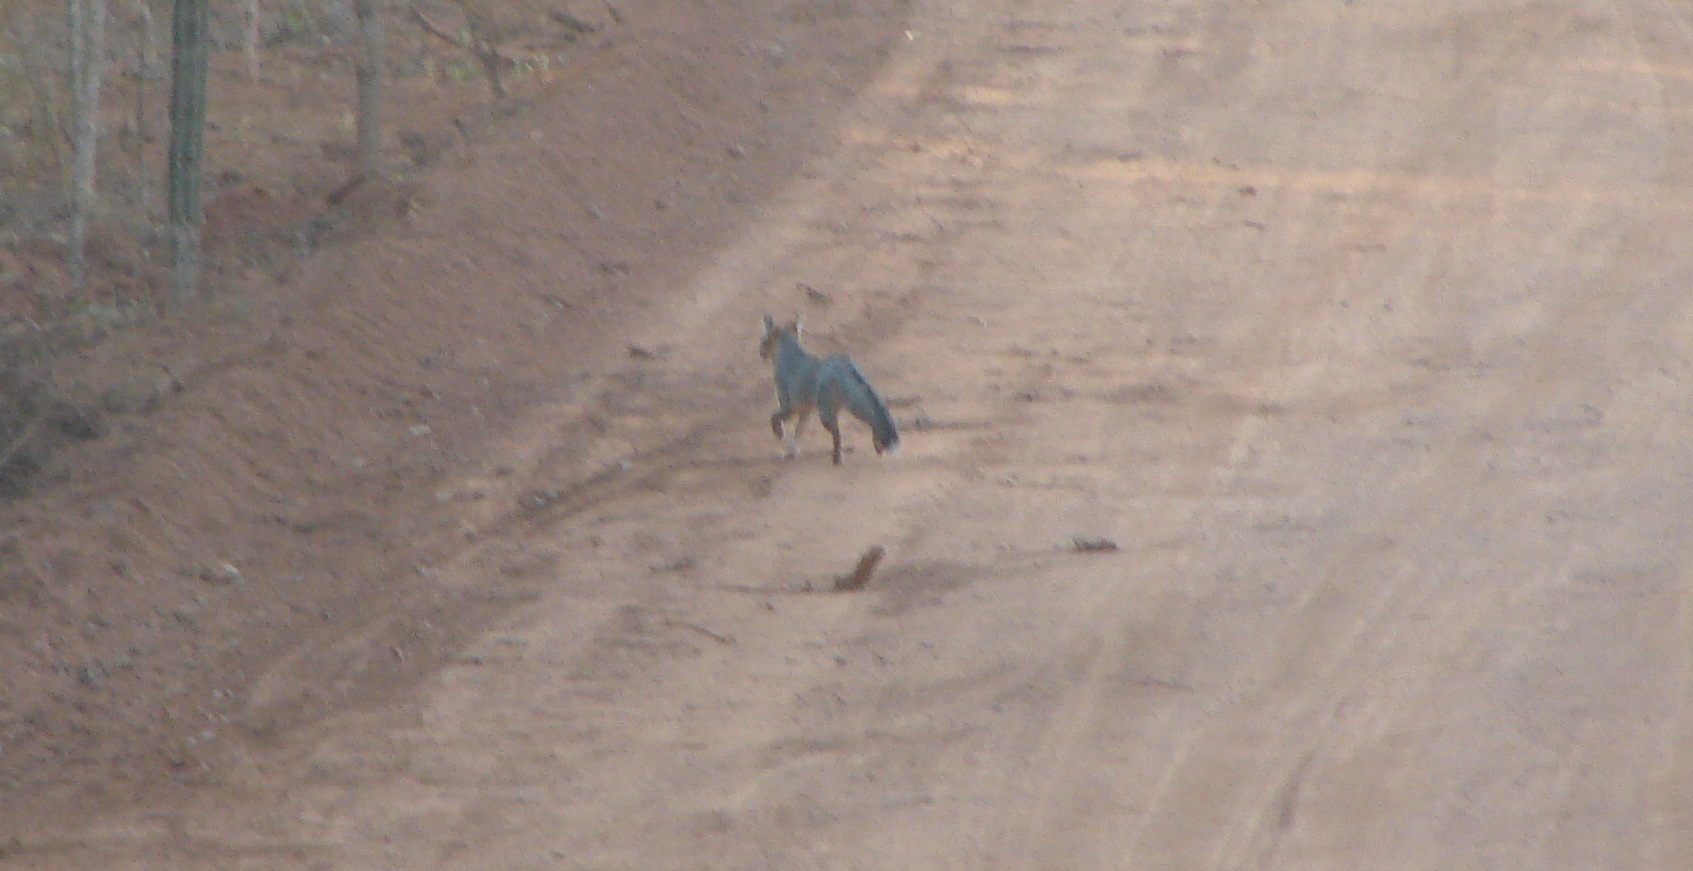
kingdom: Animalia
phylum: Chordata
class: Mammalia
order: Carnivora
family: Canidae
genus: Urocyon
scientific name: Urocyon cinereoargenteus
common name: Gray fox
